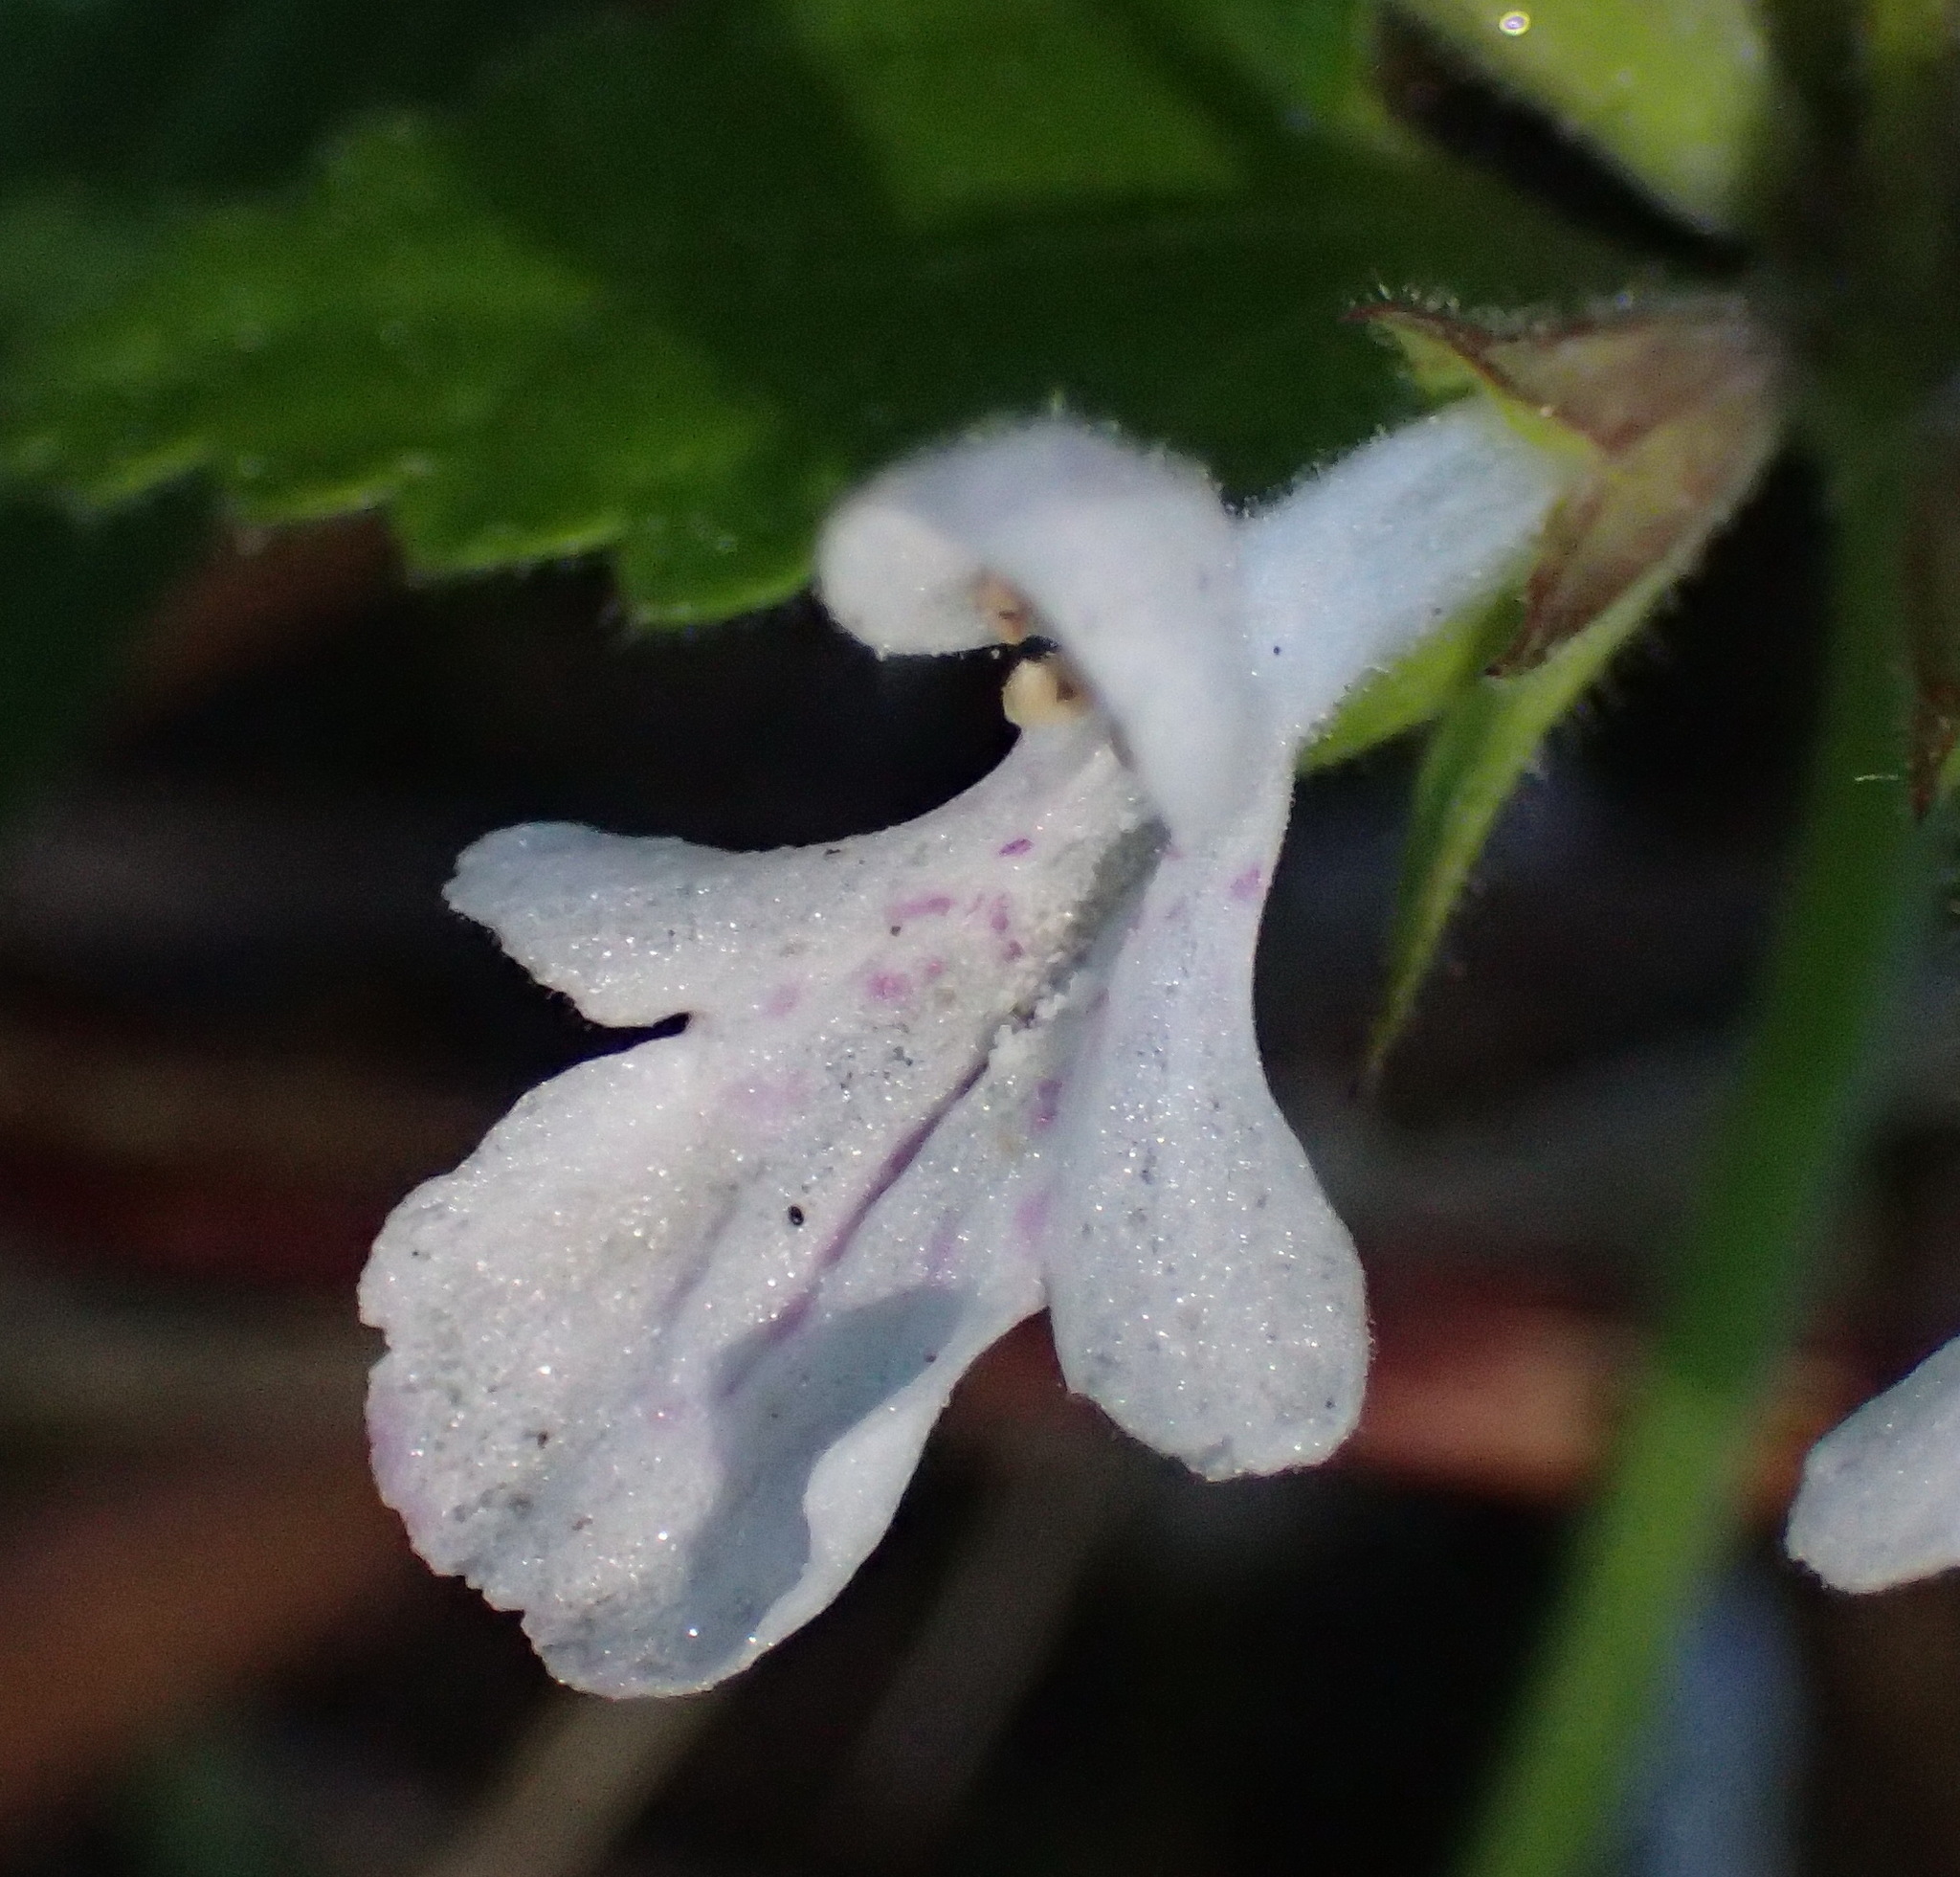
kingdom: Plantae
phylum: Tracheophyta
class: Magnoliopsida
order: Lamiales
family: Lamiaceae
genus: Stachys
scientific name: Stachys aethiopica
